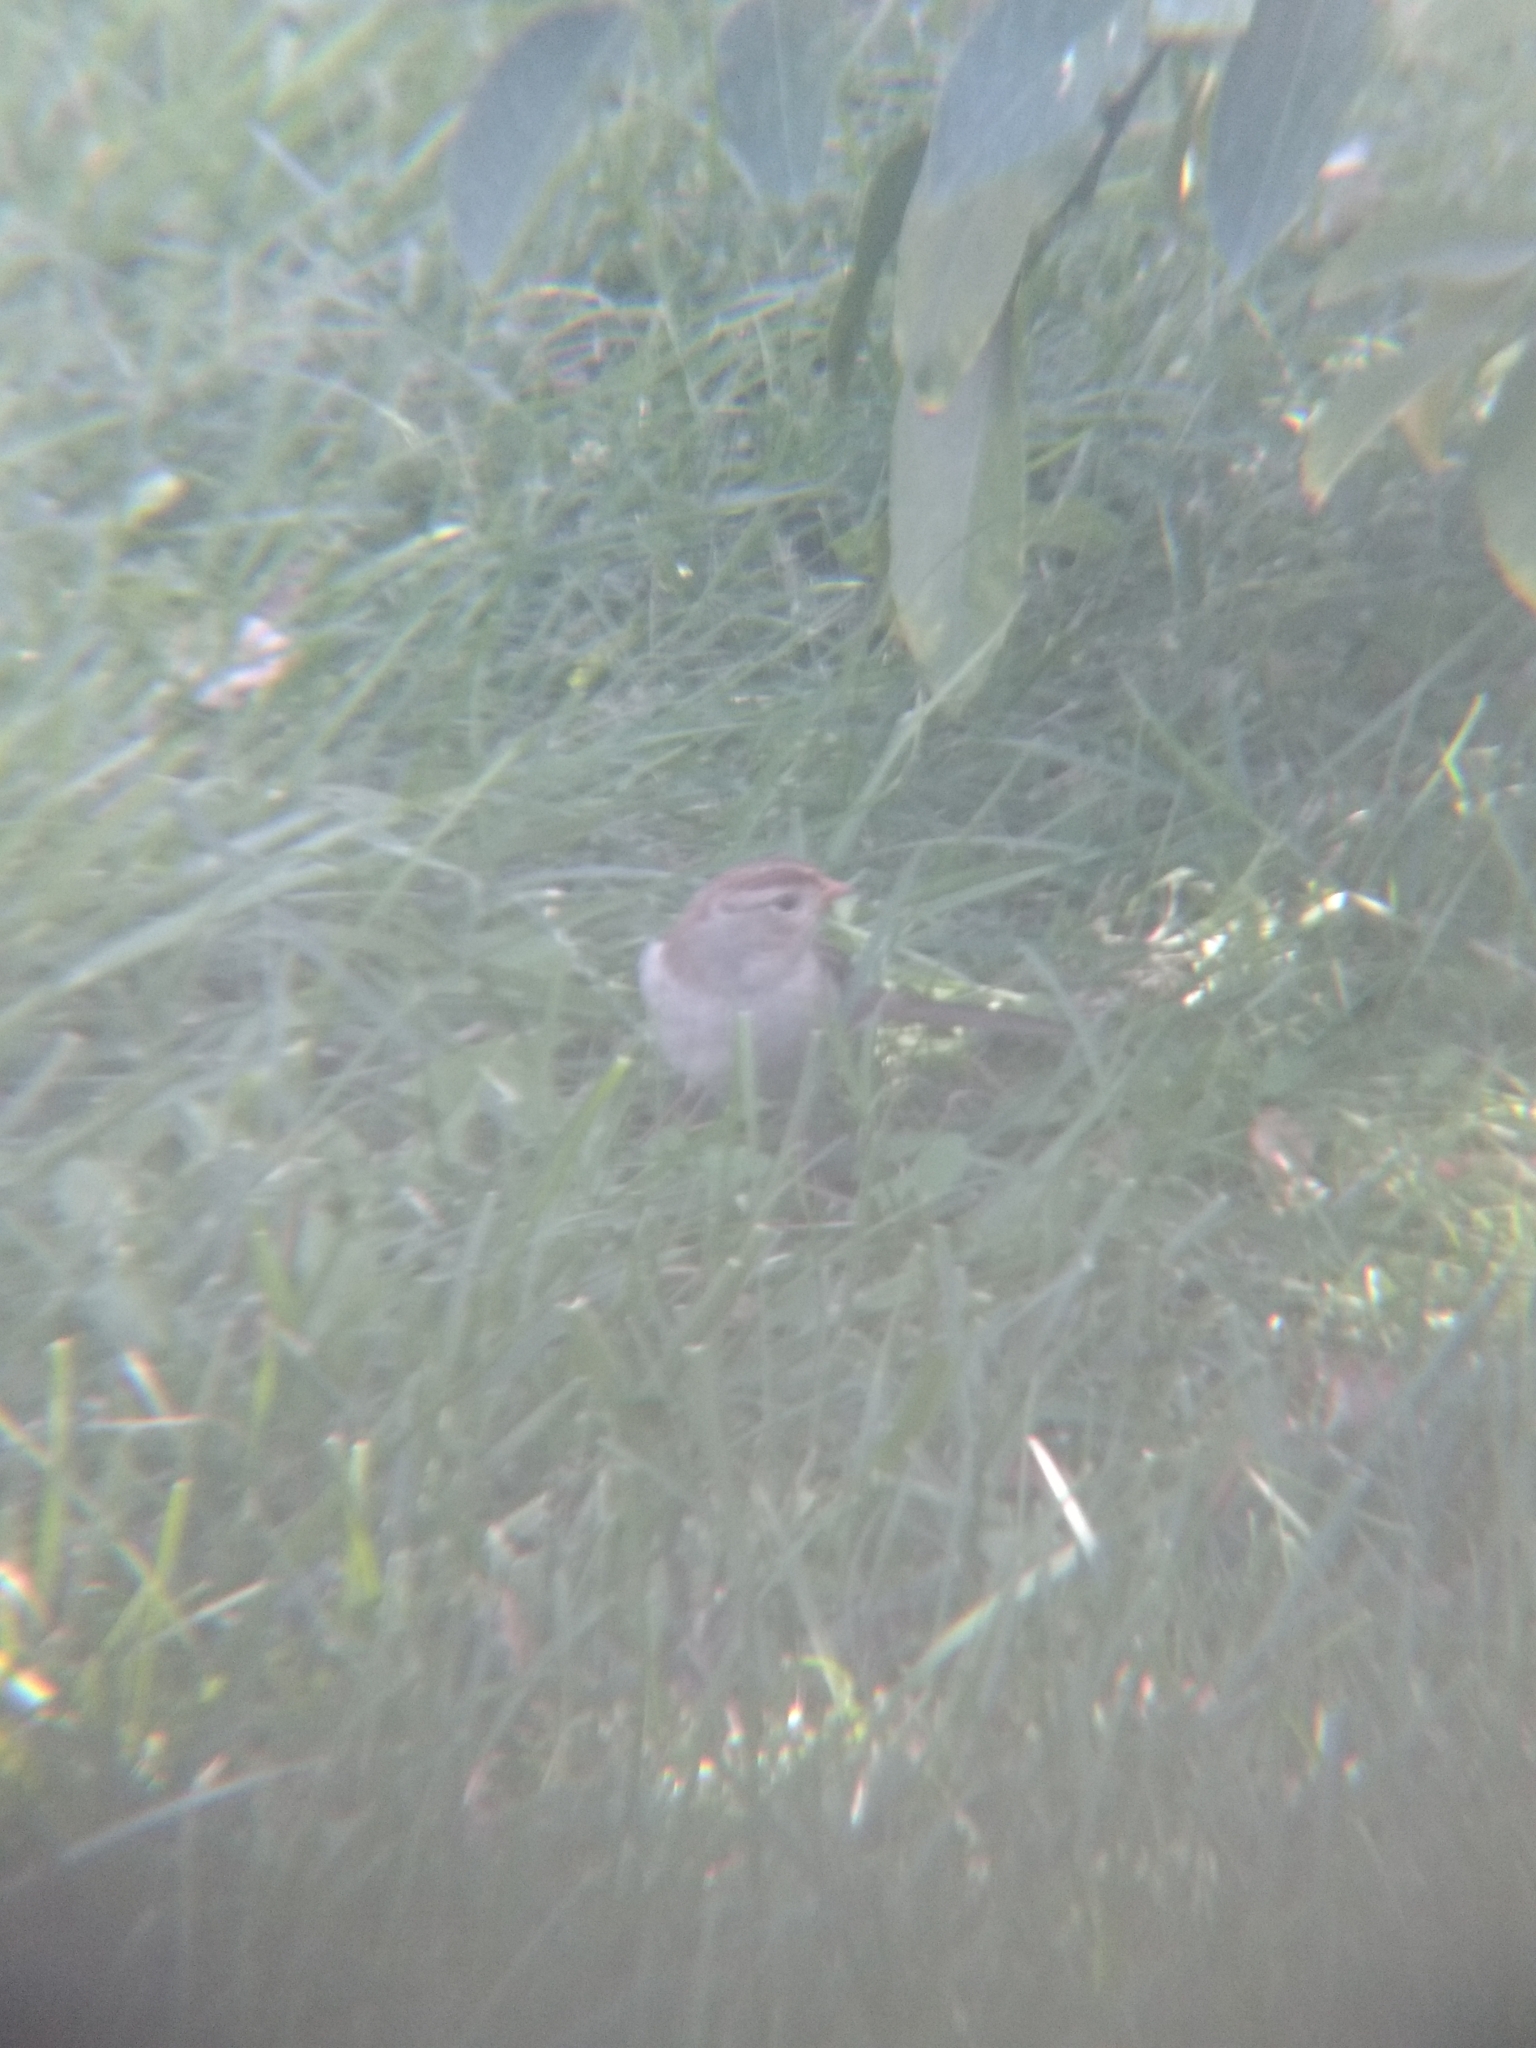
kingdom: Animalia
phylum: Chordata
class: Aves
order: Passeriformes
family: Passerellidae
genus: Zonotrichia
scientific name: Zonotrichia leucophrys
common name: White-crowned sparrow
